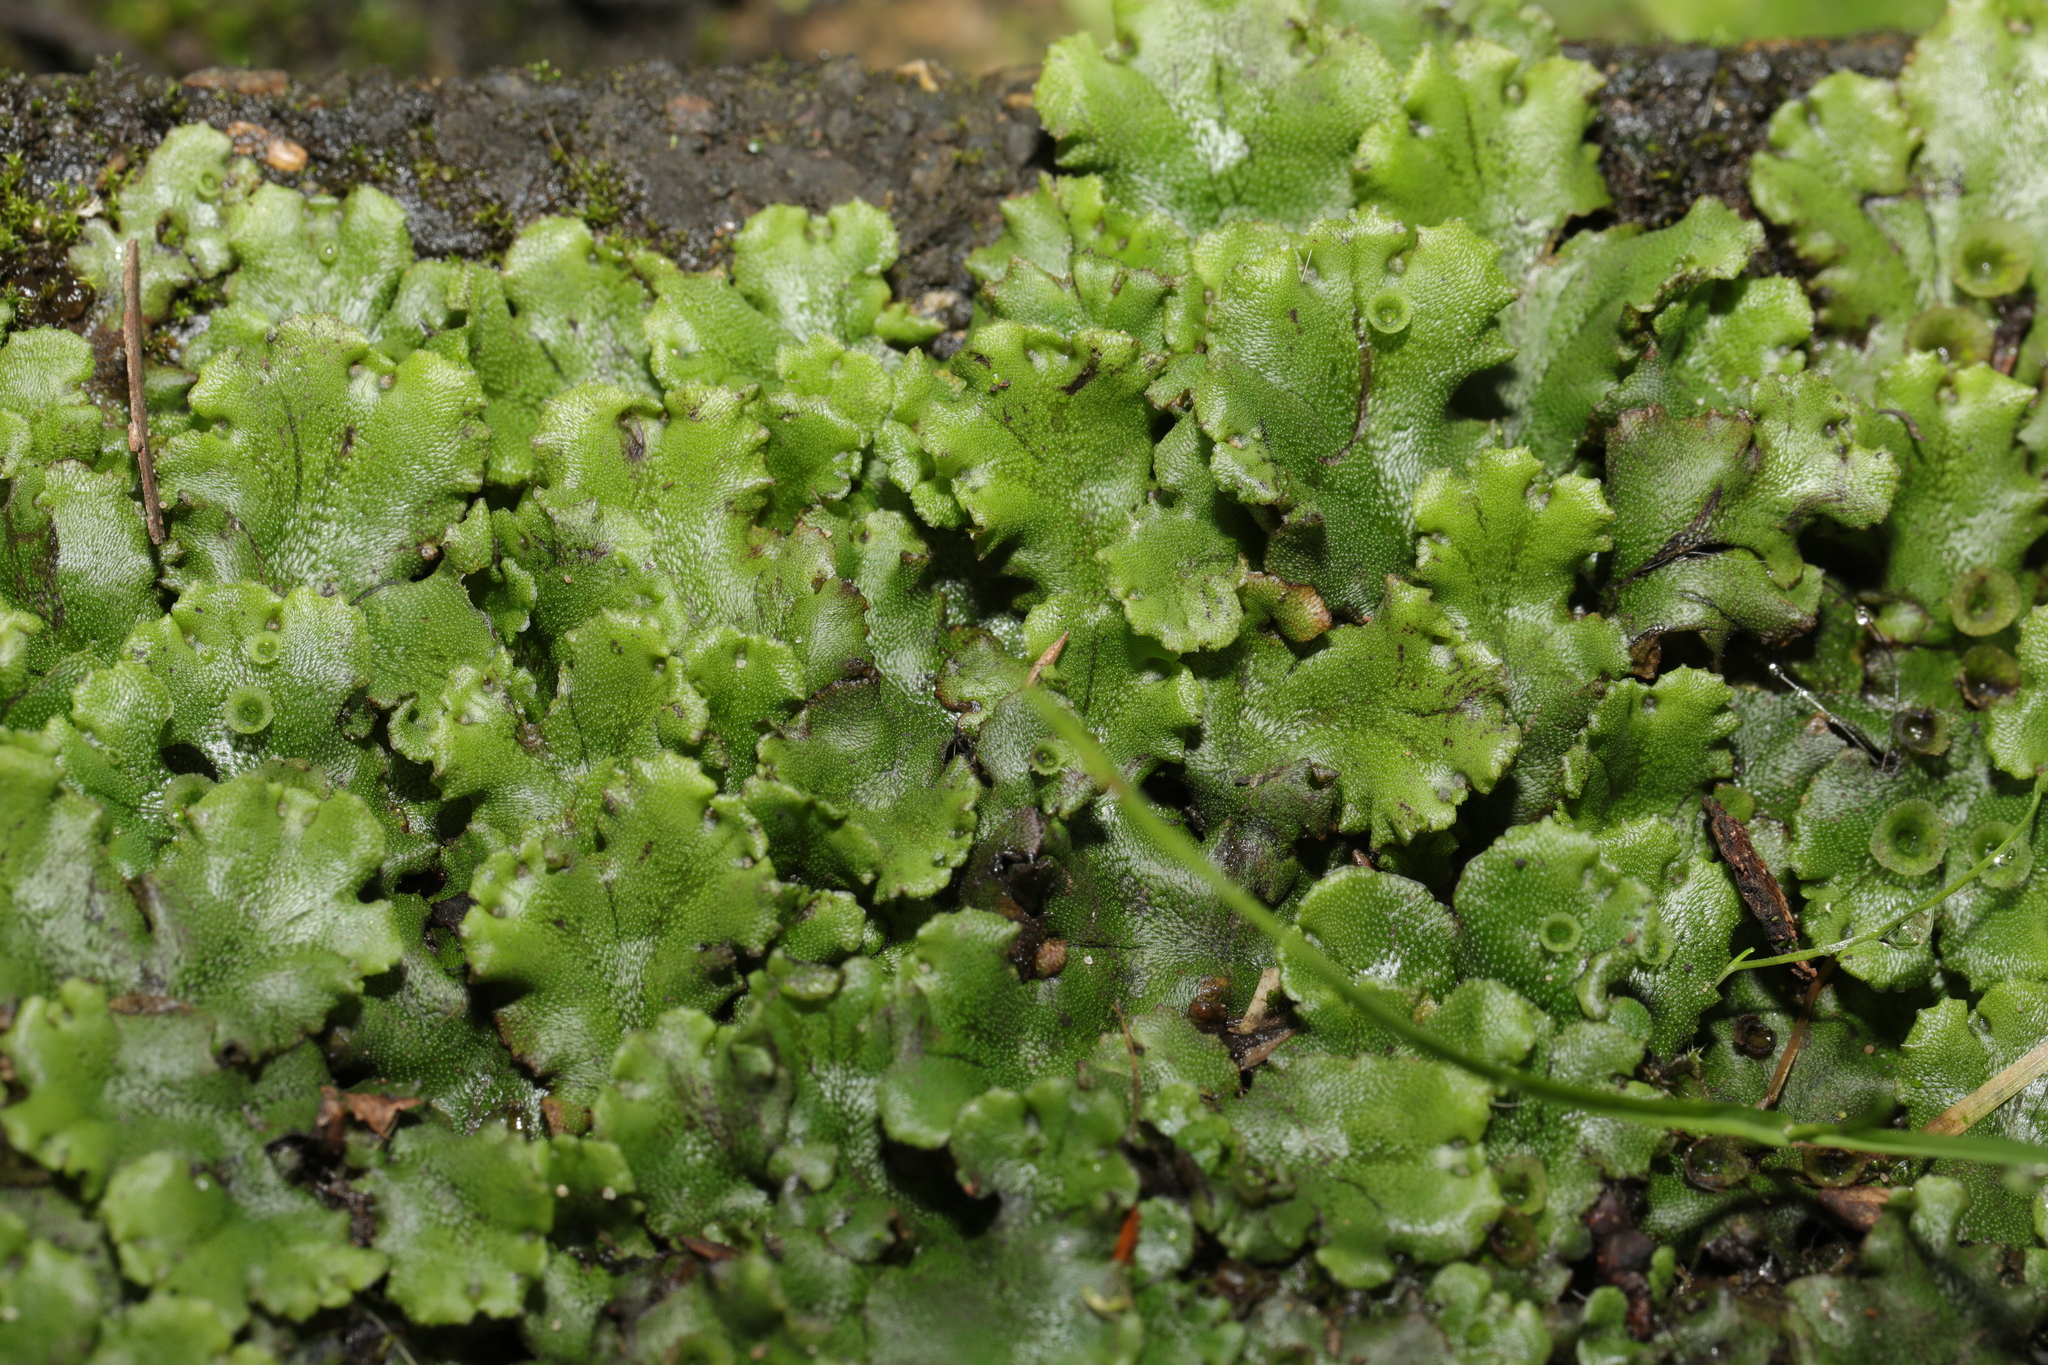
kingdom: Plantae
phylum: Marchantiophyta
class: Marchantiopsida
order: Marchantiales
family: Marchantiaceae
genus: Marchantia
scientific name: Marchantia polymorpha
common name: Common liverwort
